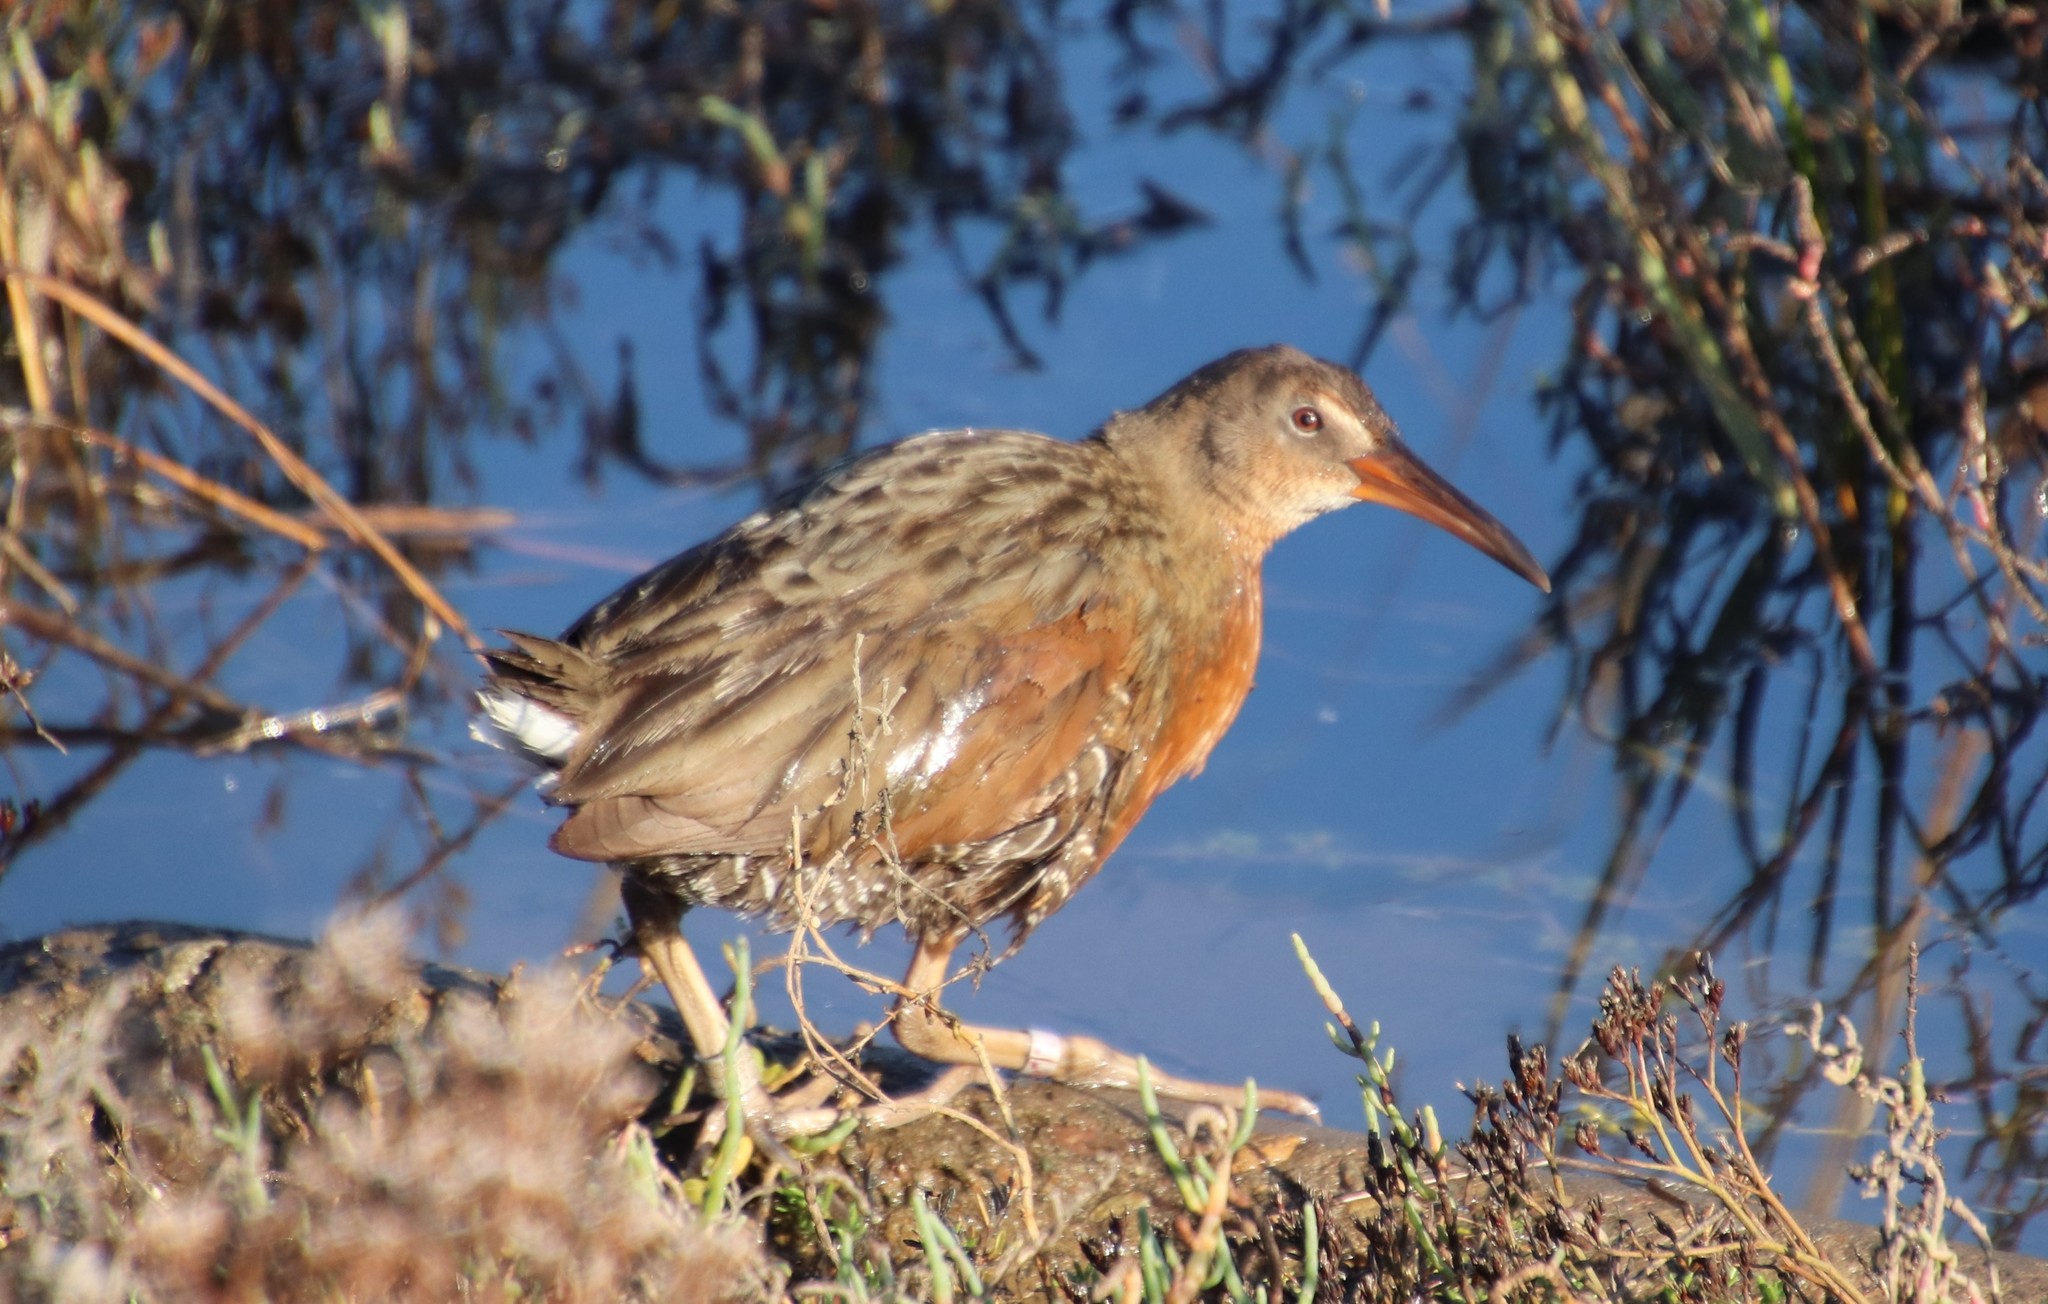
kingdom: Animalia
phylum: Chordata
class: Aves
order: Gruiformes
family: Rallidae
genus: Rallus
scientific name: Rallus obsoletus
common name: Ridgway's rail
